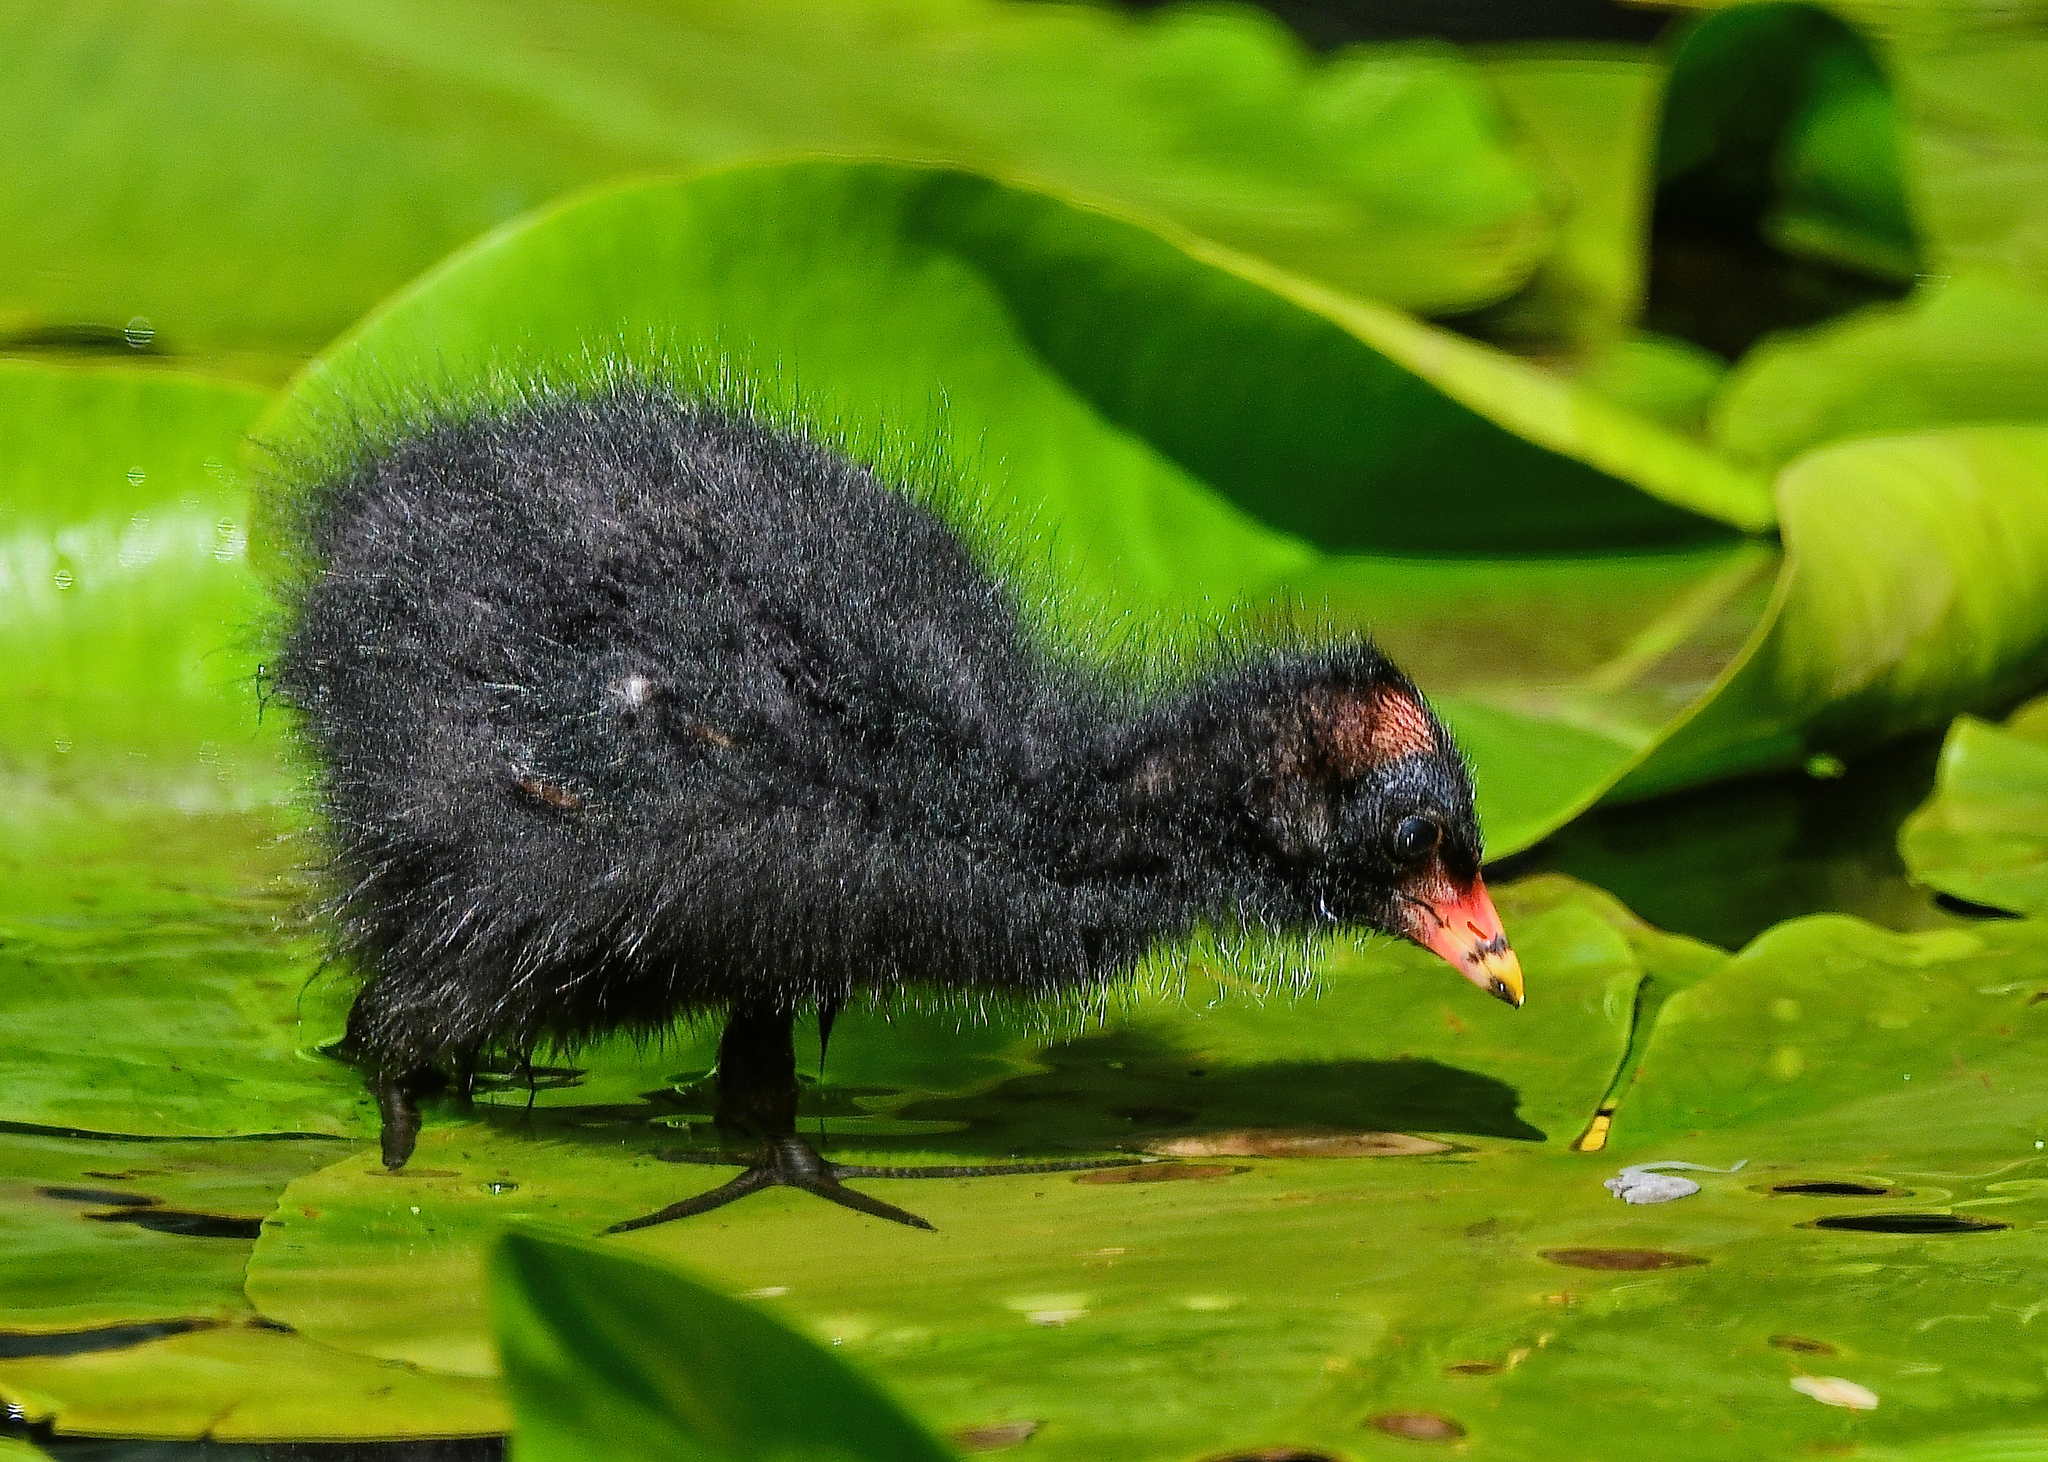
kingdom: Animalia
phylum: Chordata
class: Aves
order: Gruiformes
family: Rallidae
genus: Gallinula
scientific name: Gallinula chloropus
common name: Common moorhen
